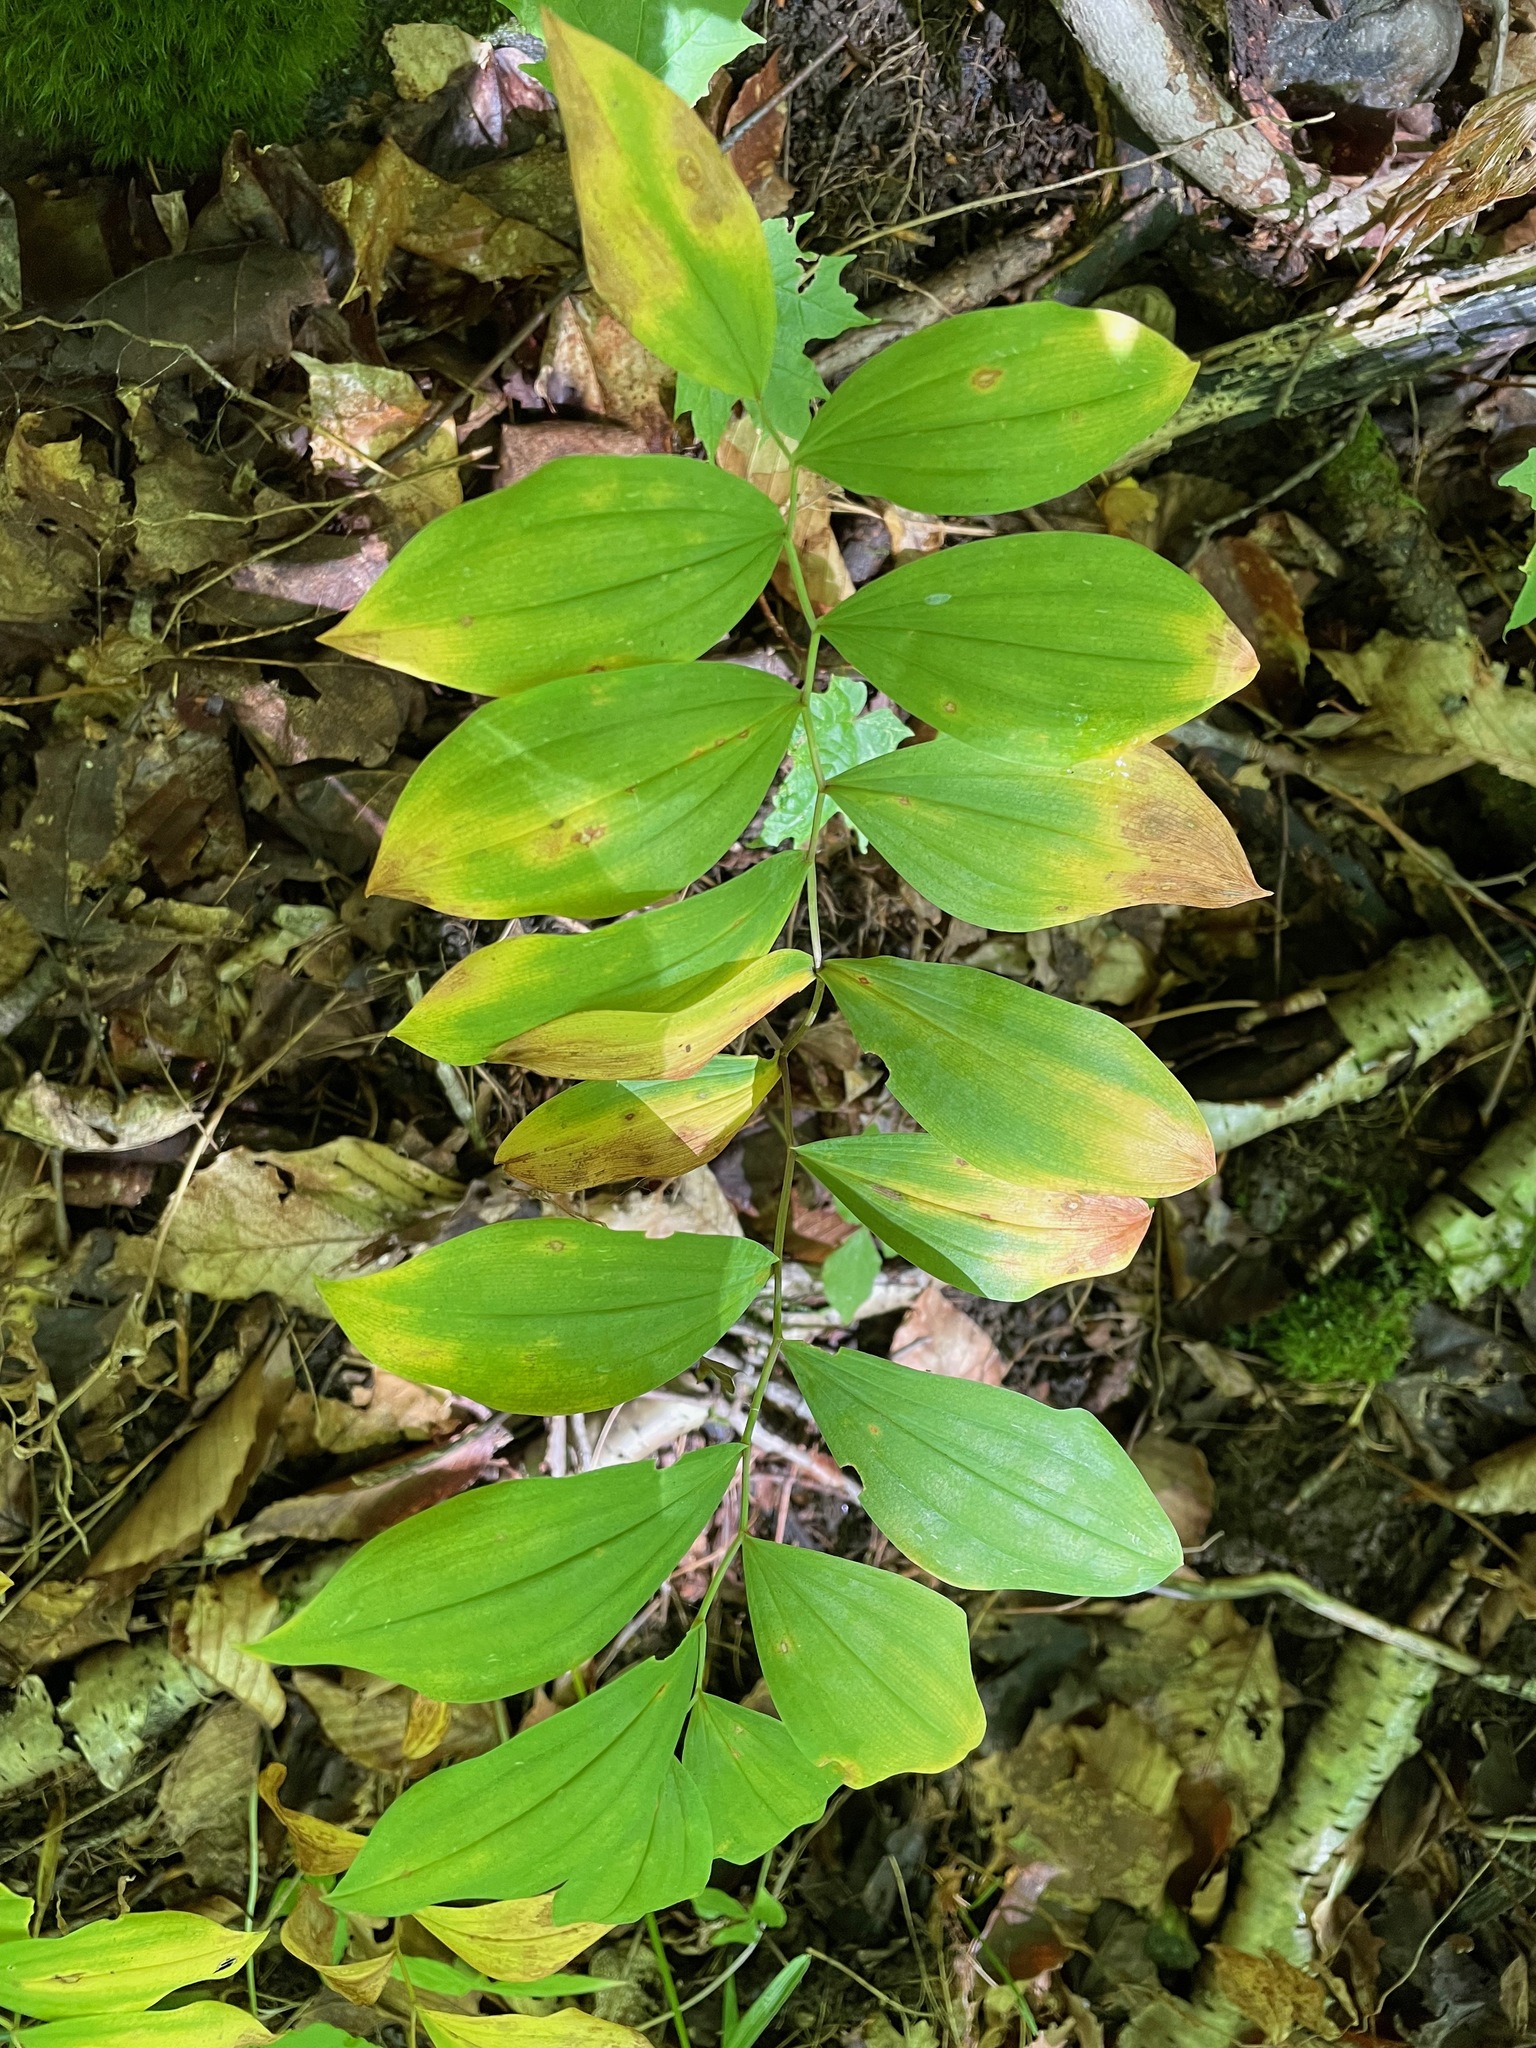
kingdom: Plantae
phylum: Tracheophyta
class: Liliopsida
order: Liliales
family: Colchicaceae
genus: Uvularia
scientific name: Uvularia sessilifolia
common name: Straw-lily
